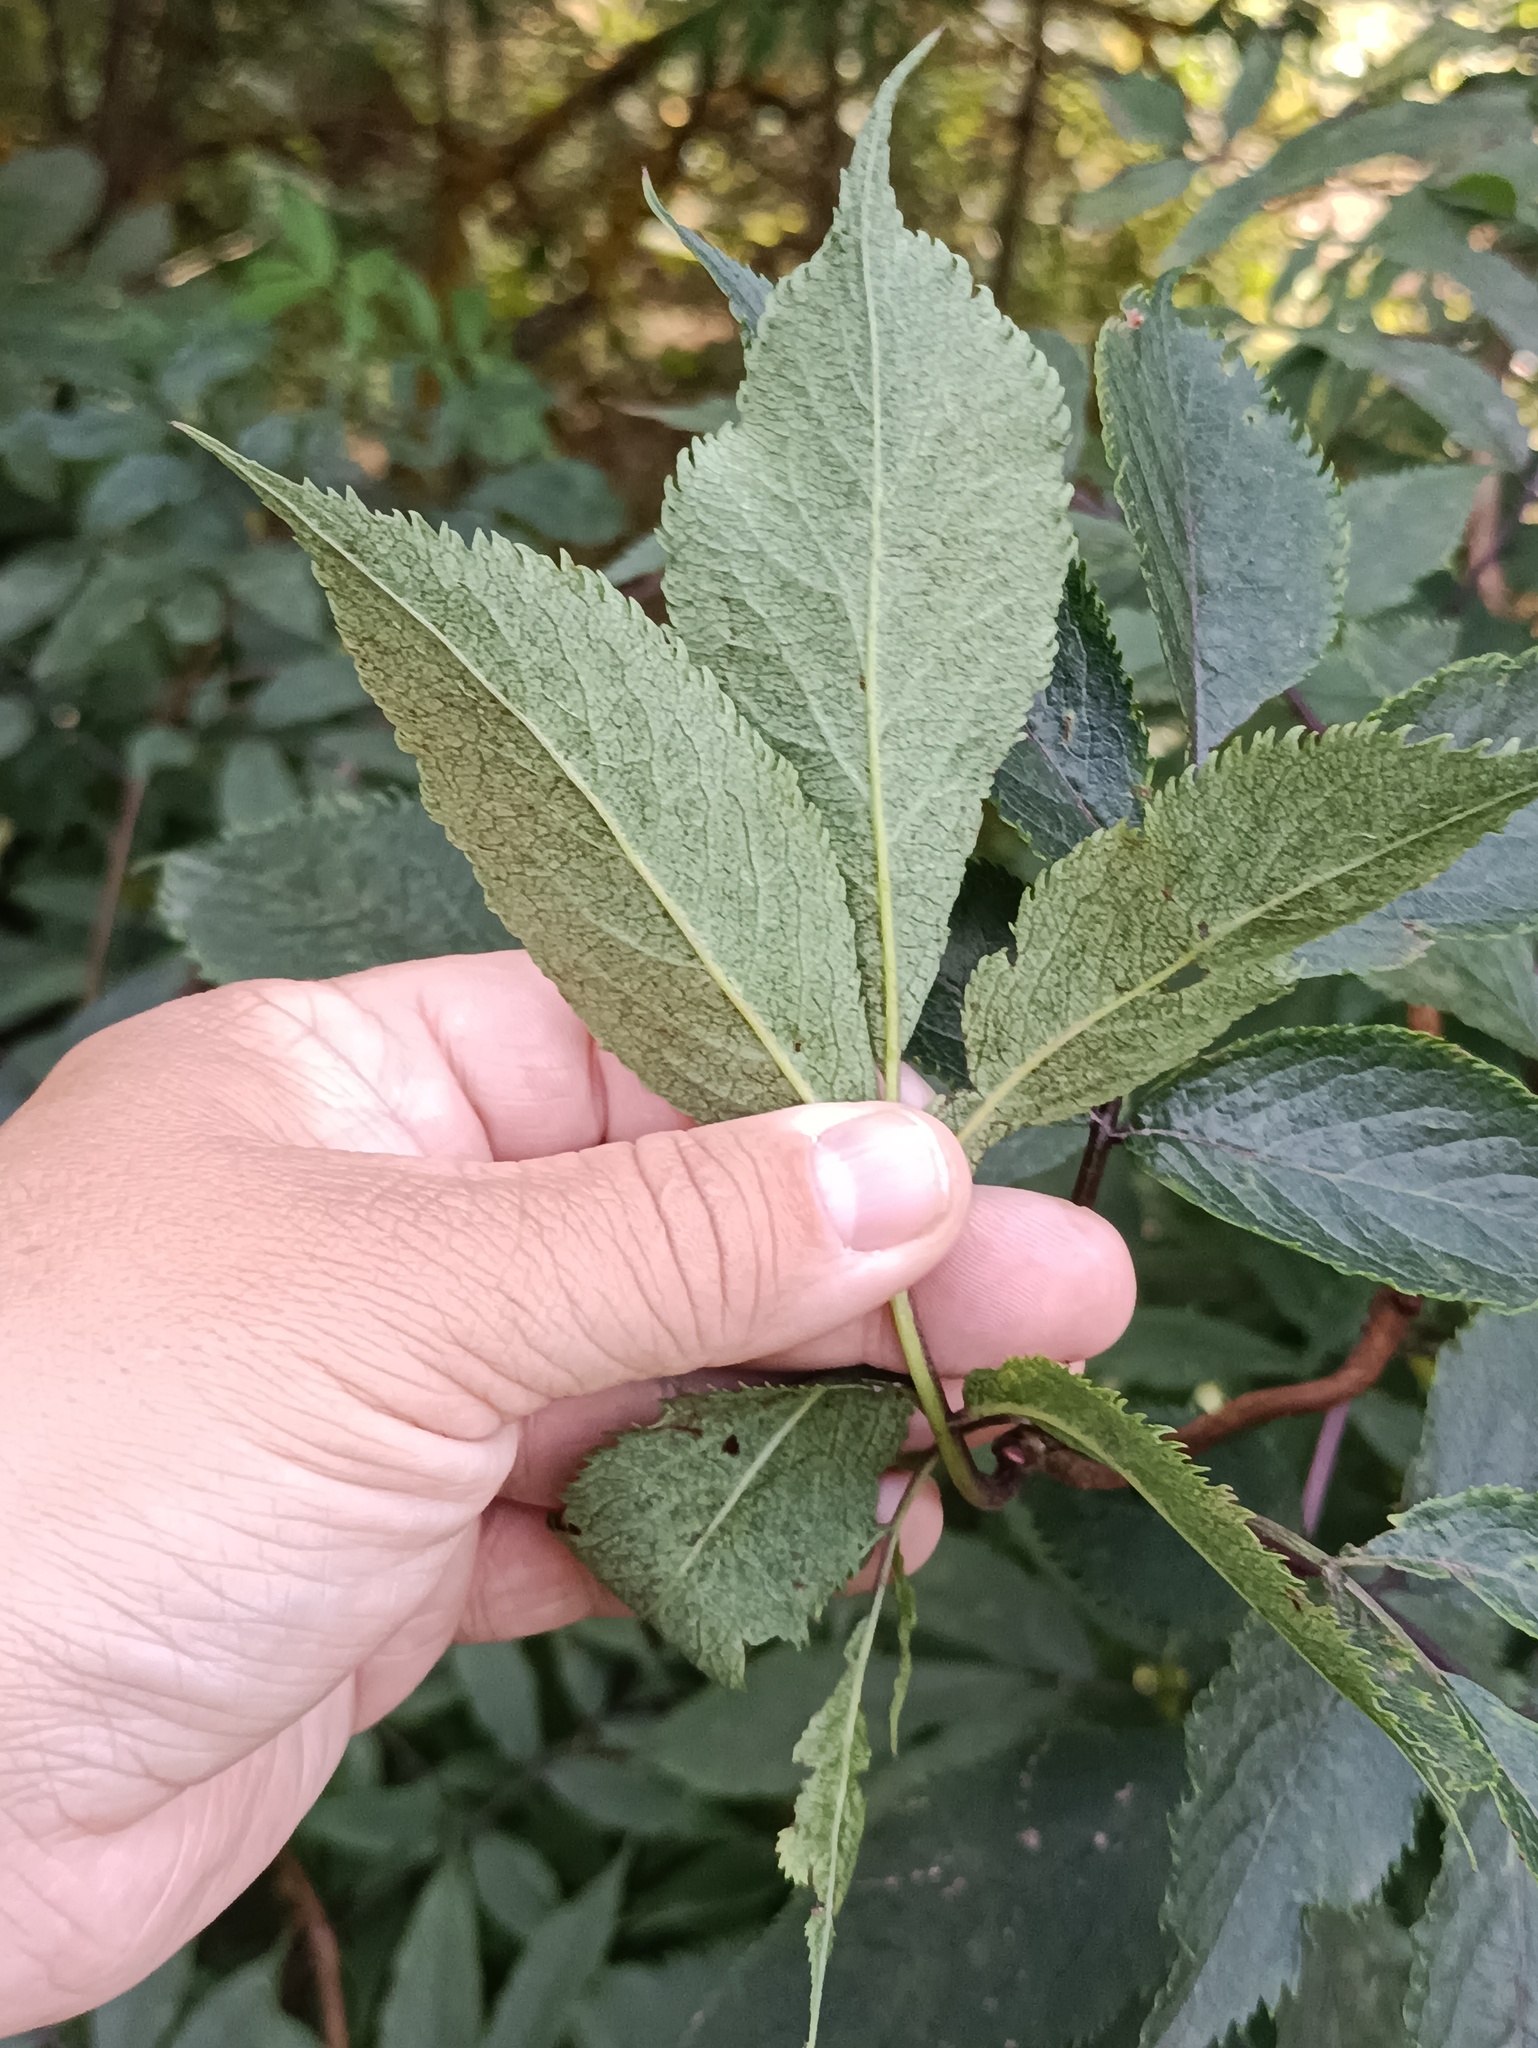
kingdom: Plantae
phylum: Tracheophyta
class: Magnoliopsida
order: Dipsacales
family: Viburnaceae
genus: Sambucus
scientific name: Sambucus racemosa
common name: Red-berried elder
